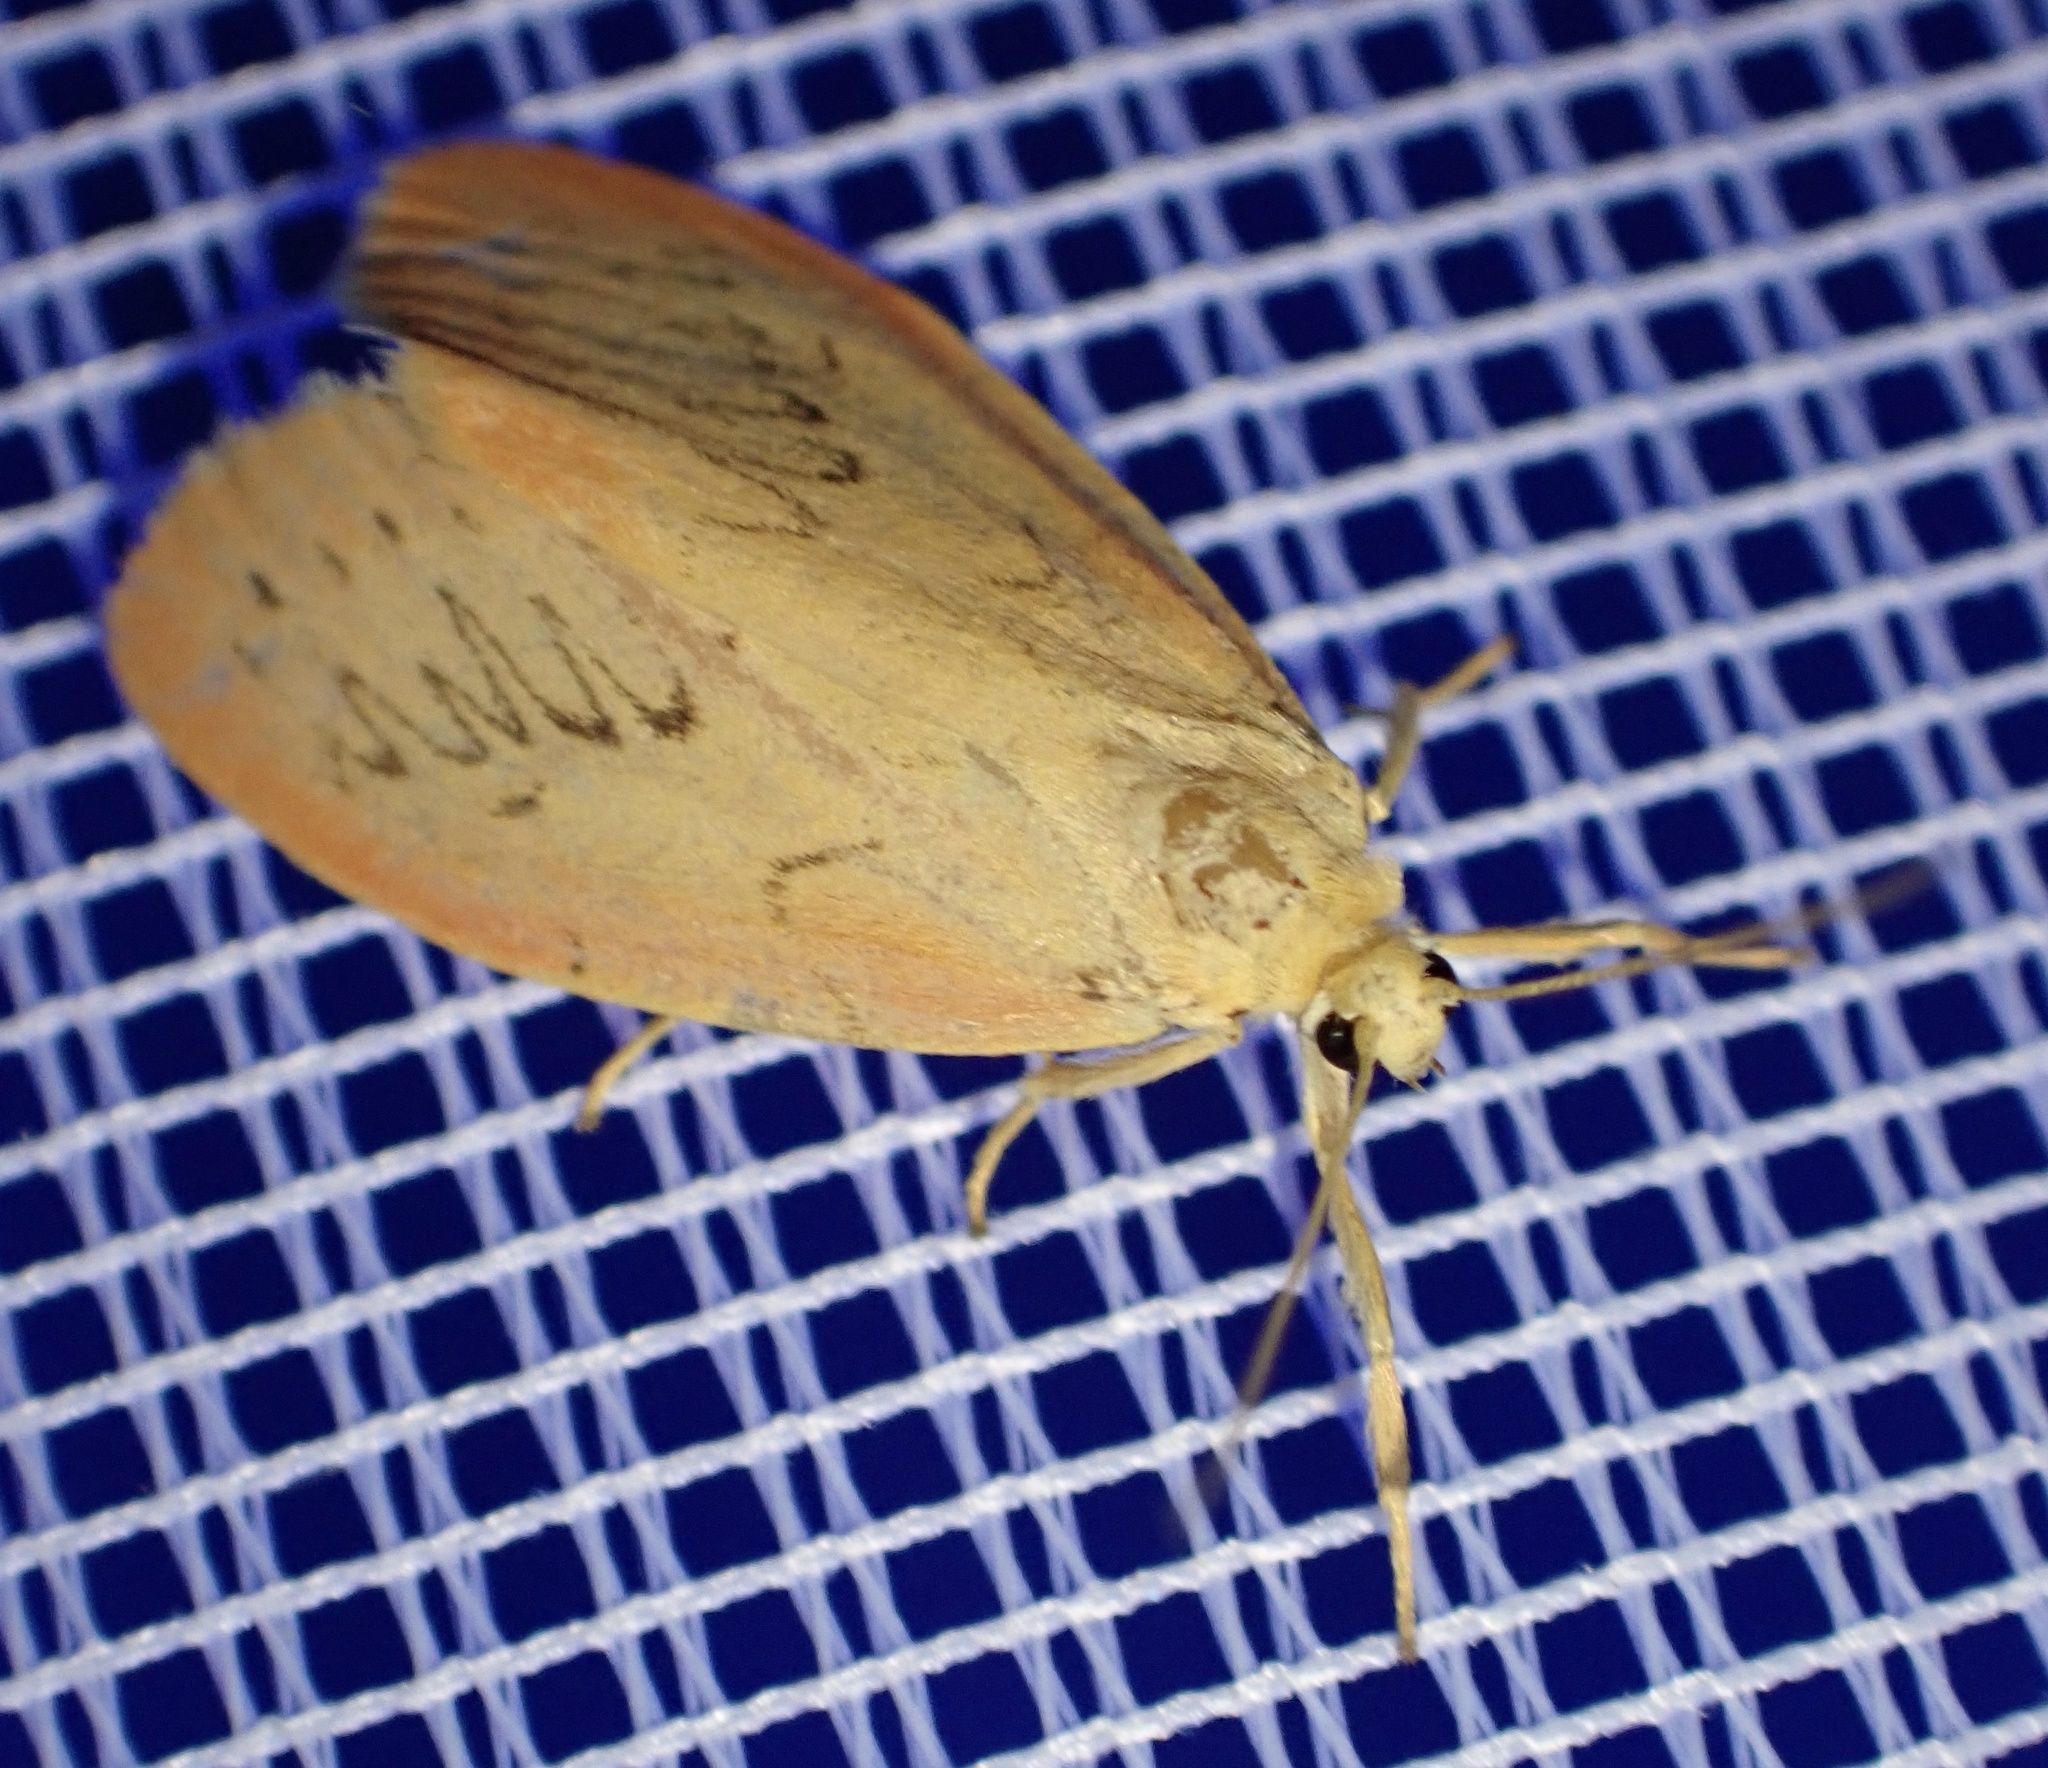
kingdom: Animalia
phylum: Arthropoda
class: Insecta
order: Lepidoptera
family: Erebidae
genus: Miltochrista
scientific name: Miltochrista miniata
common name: Rosy footman
